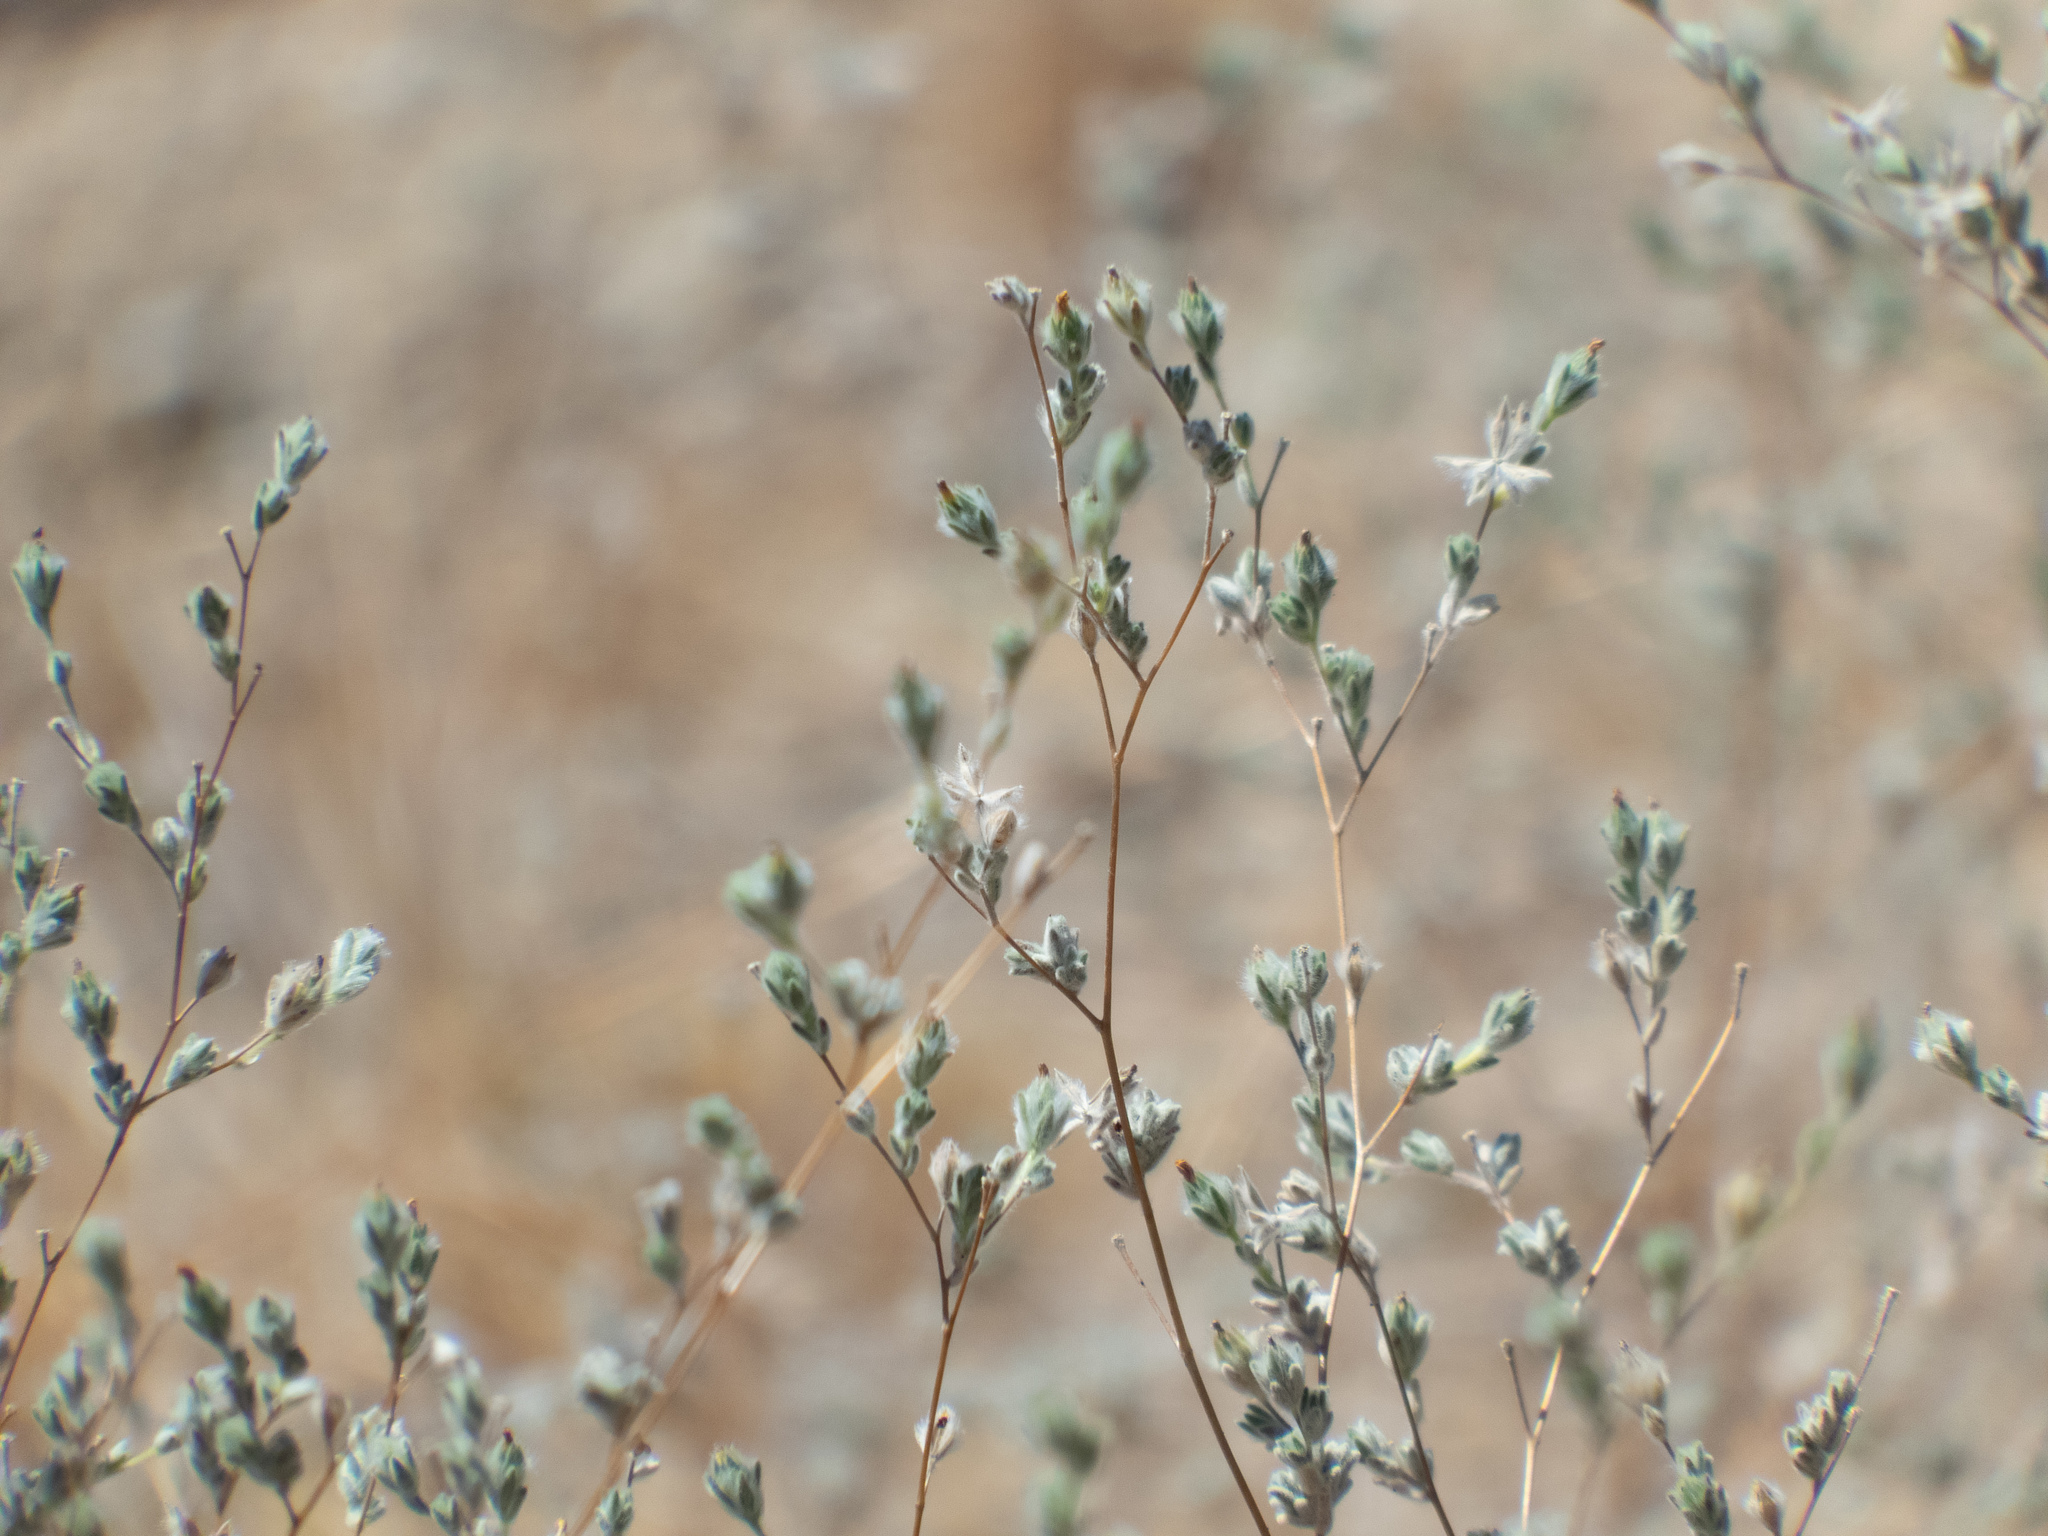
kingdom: Plantae
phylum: Tracheophyta
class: Magnoliopsida
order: Asterales
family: Asteraceae
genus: Lagophylla
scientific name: Lagophylla ramosissima
